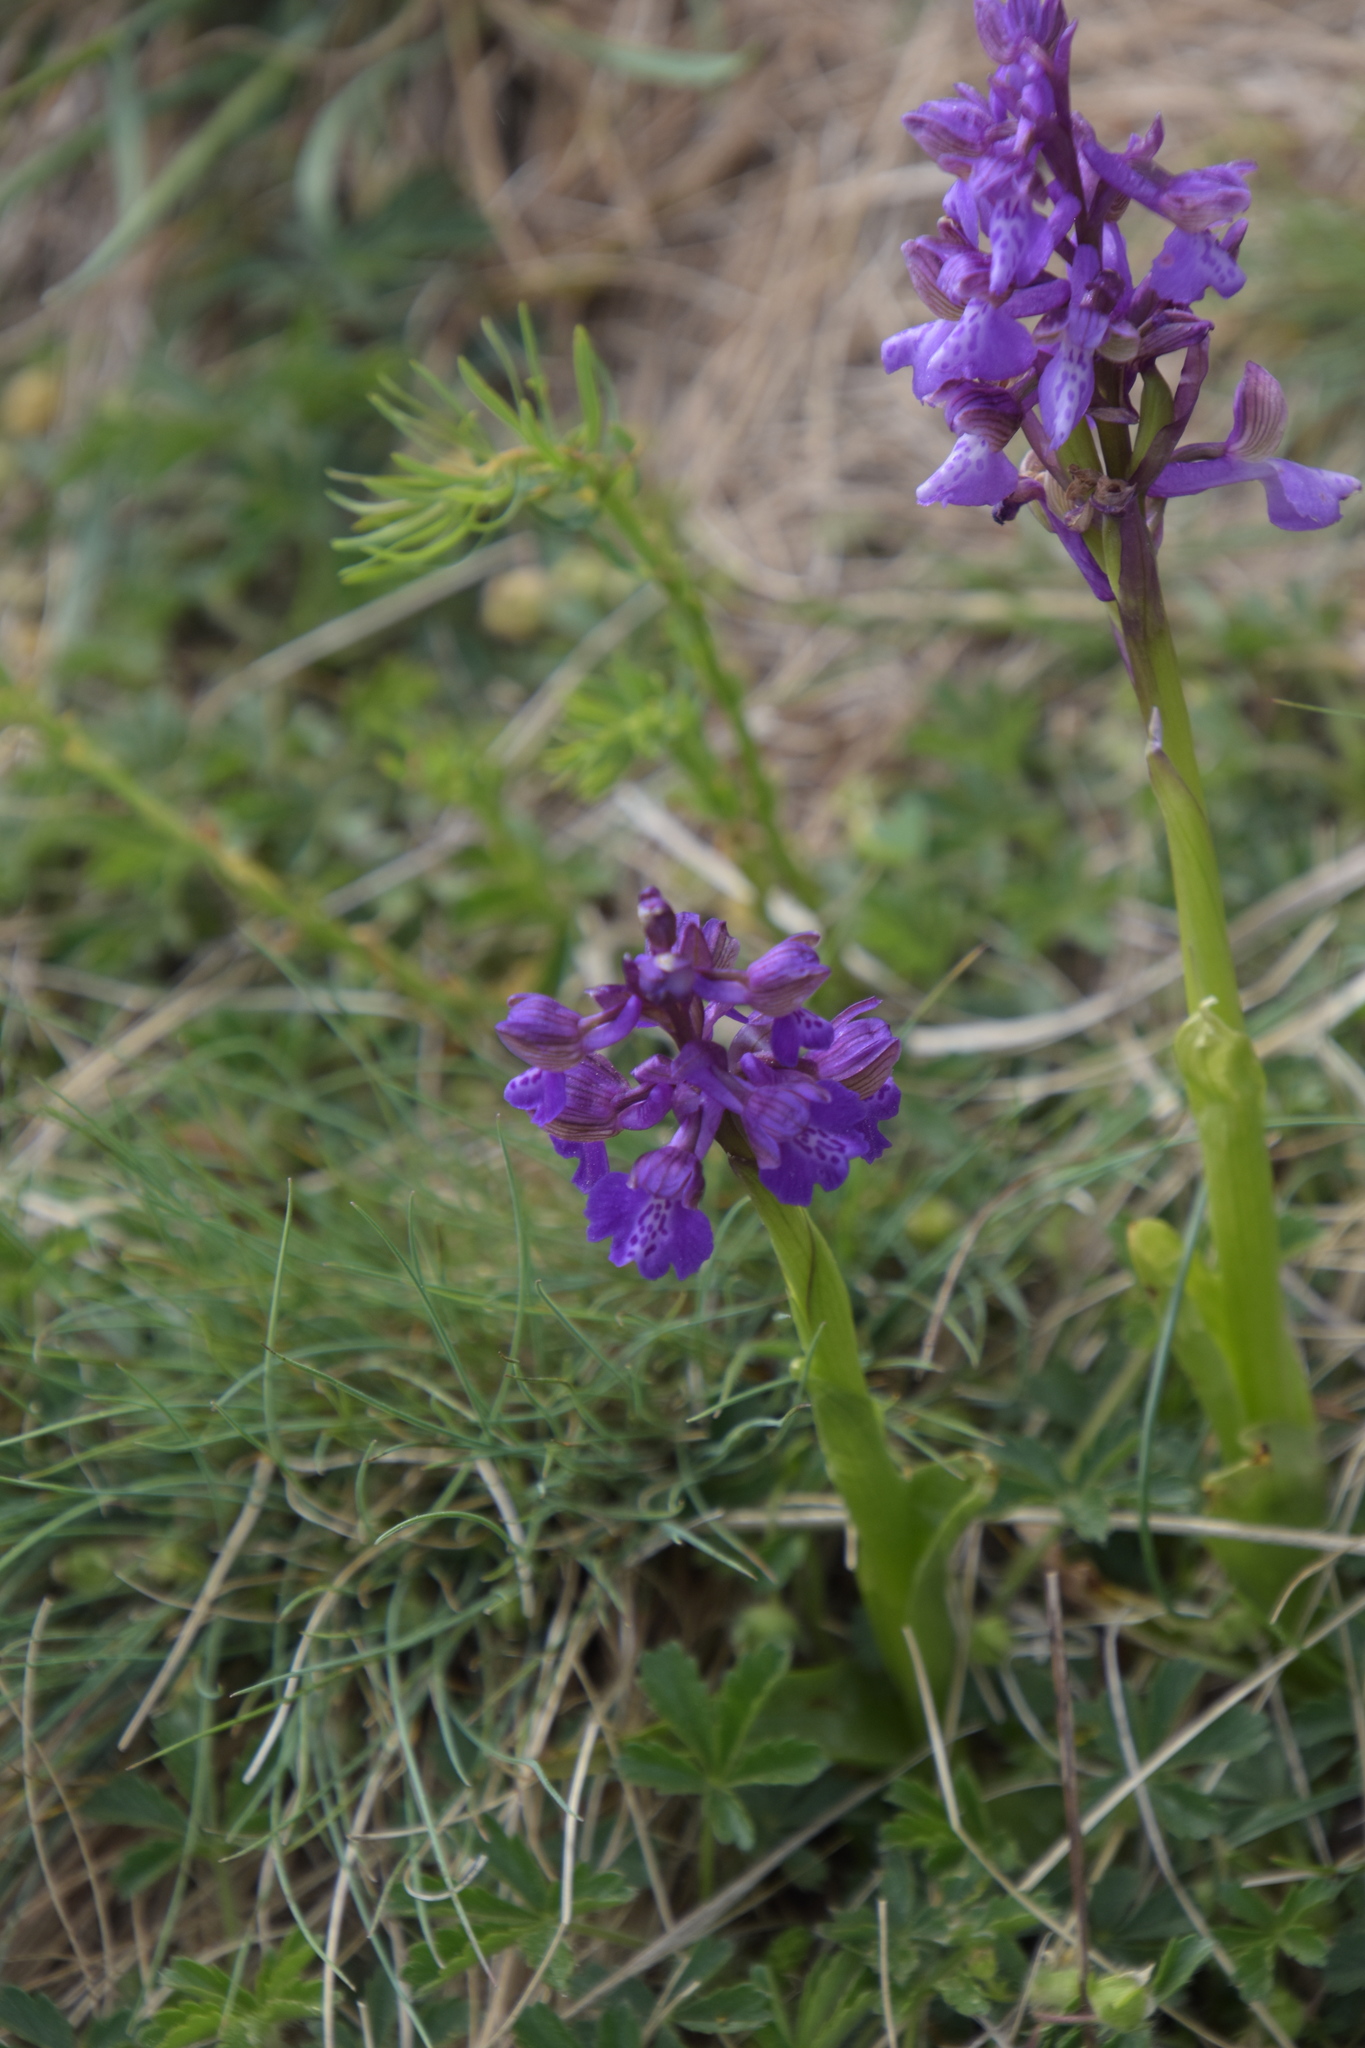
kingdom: Plantae
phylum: Tracheophyta
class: Liliopsida
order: Asparagales
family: Orchidaceae
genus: Anacamptis
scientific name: Anacamptis morio
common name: Green-winged orchid
